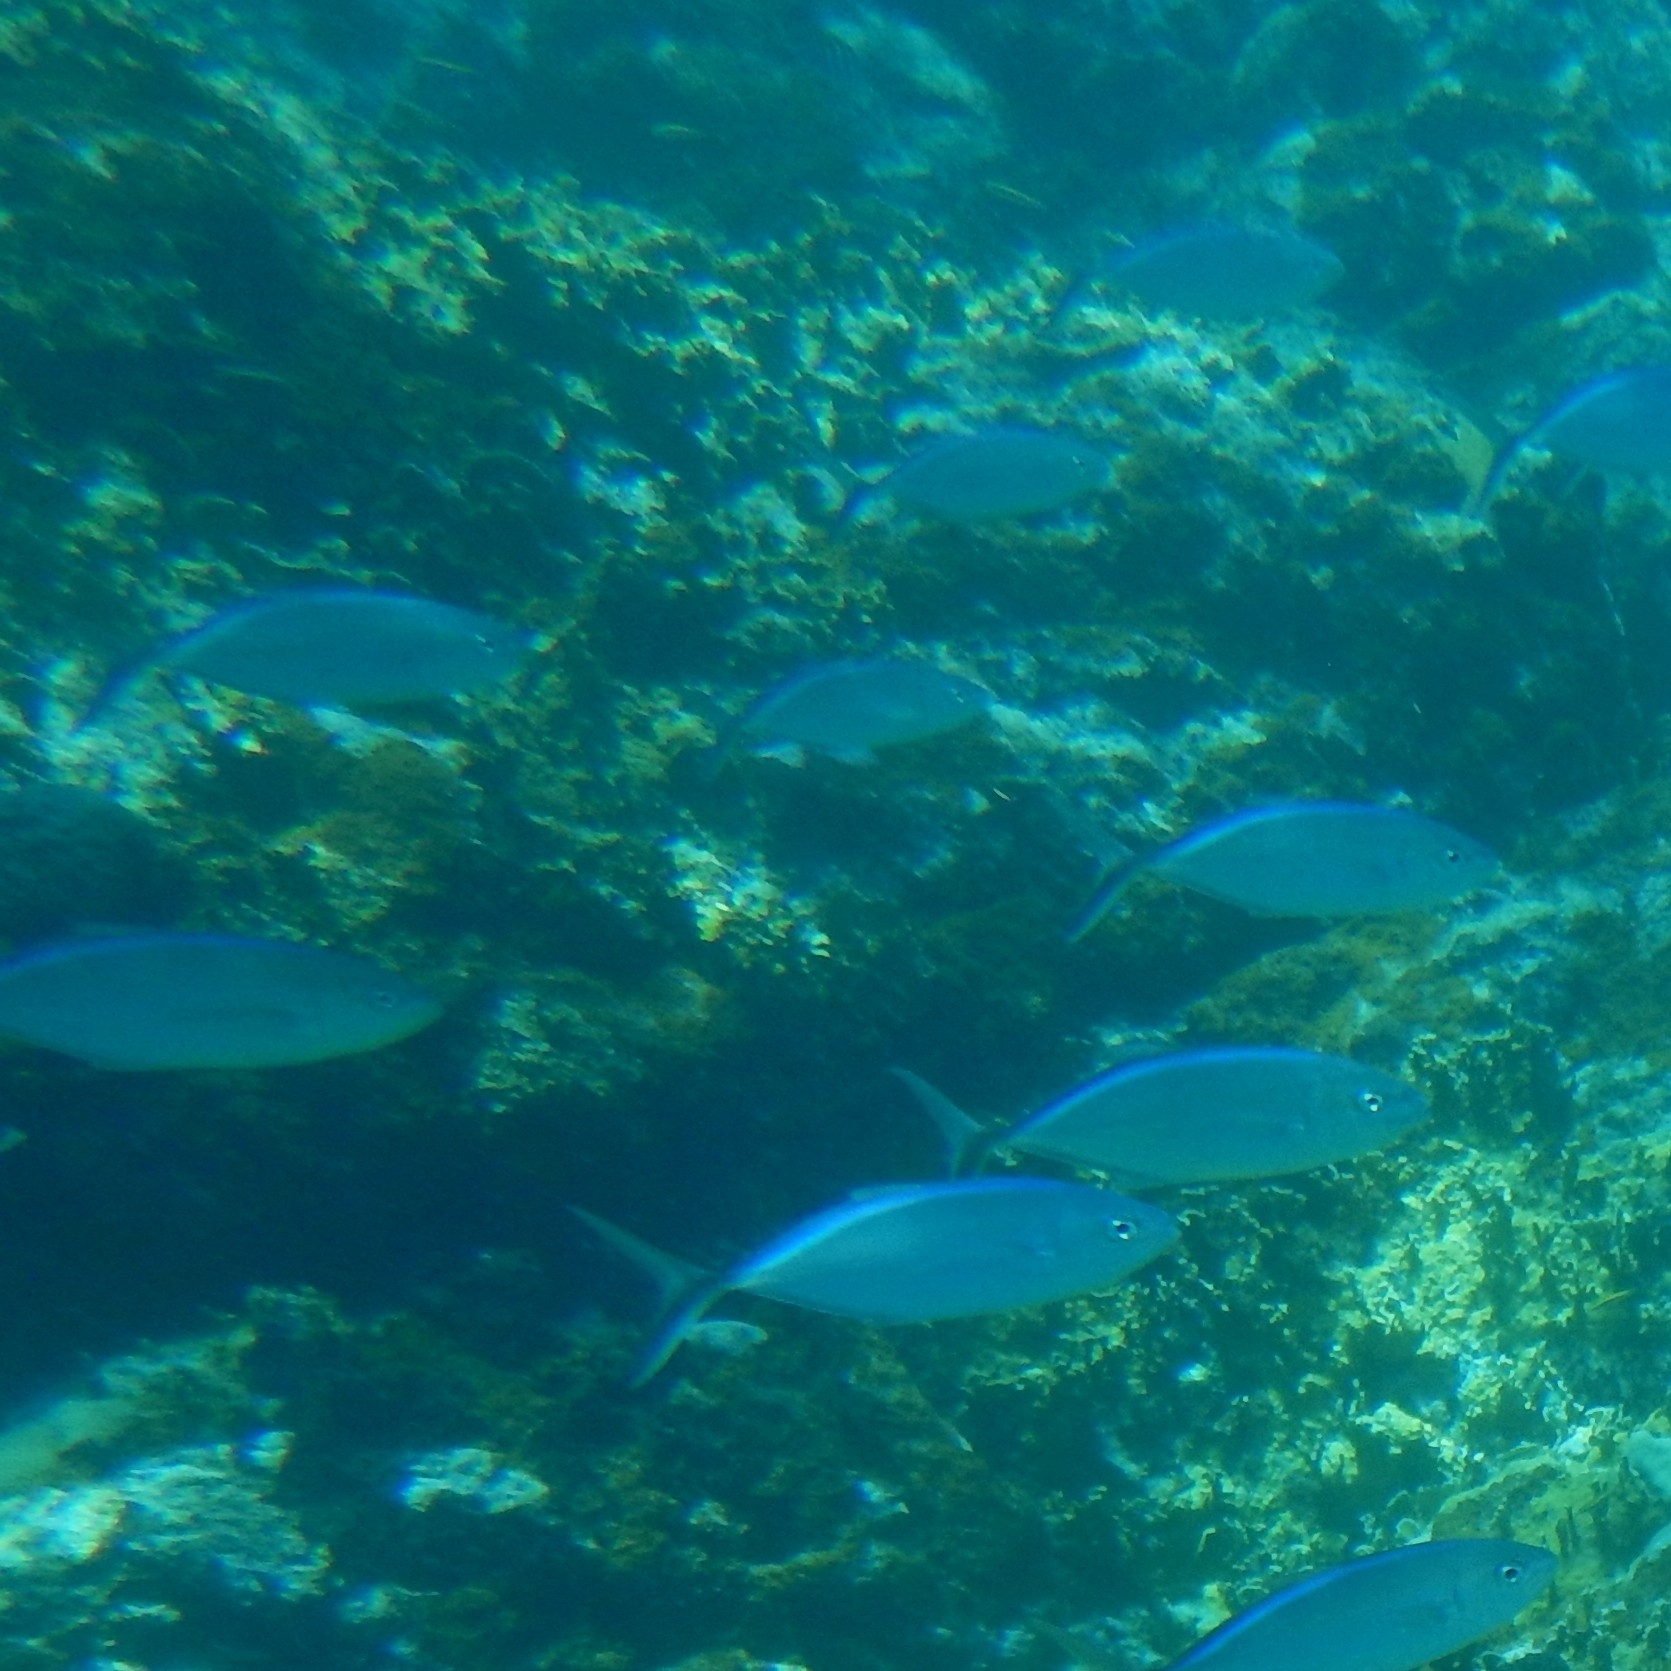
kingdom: Animalia
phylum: Chordata
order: Perciformes
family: Carangidae
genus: Caranx
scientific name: Caranx ruber
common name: Bar jack
